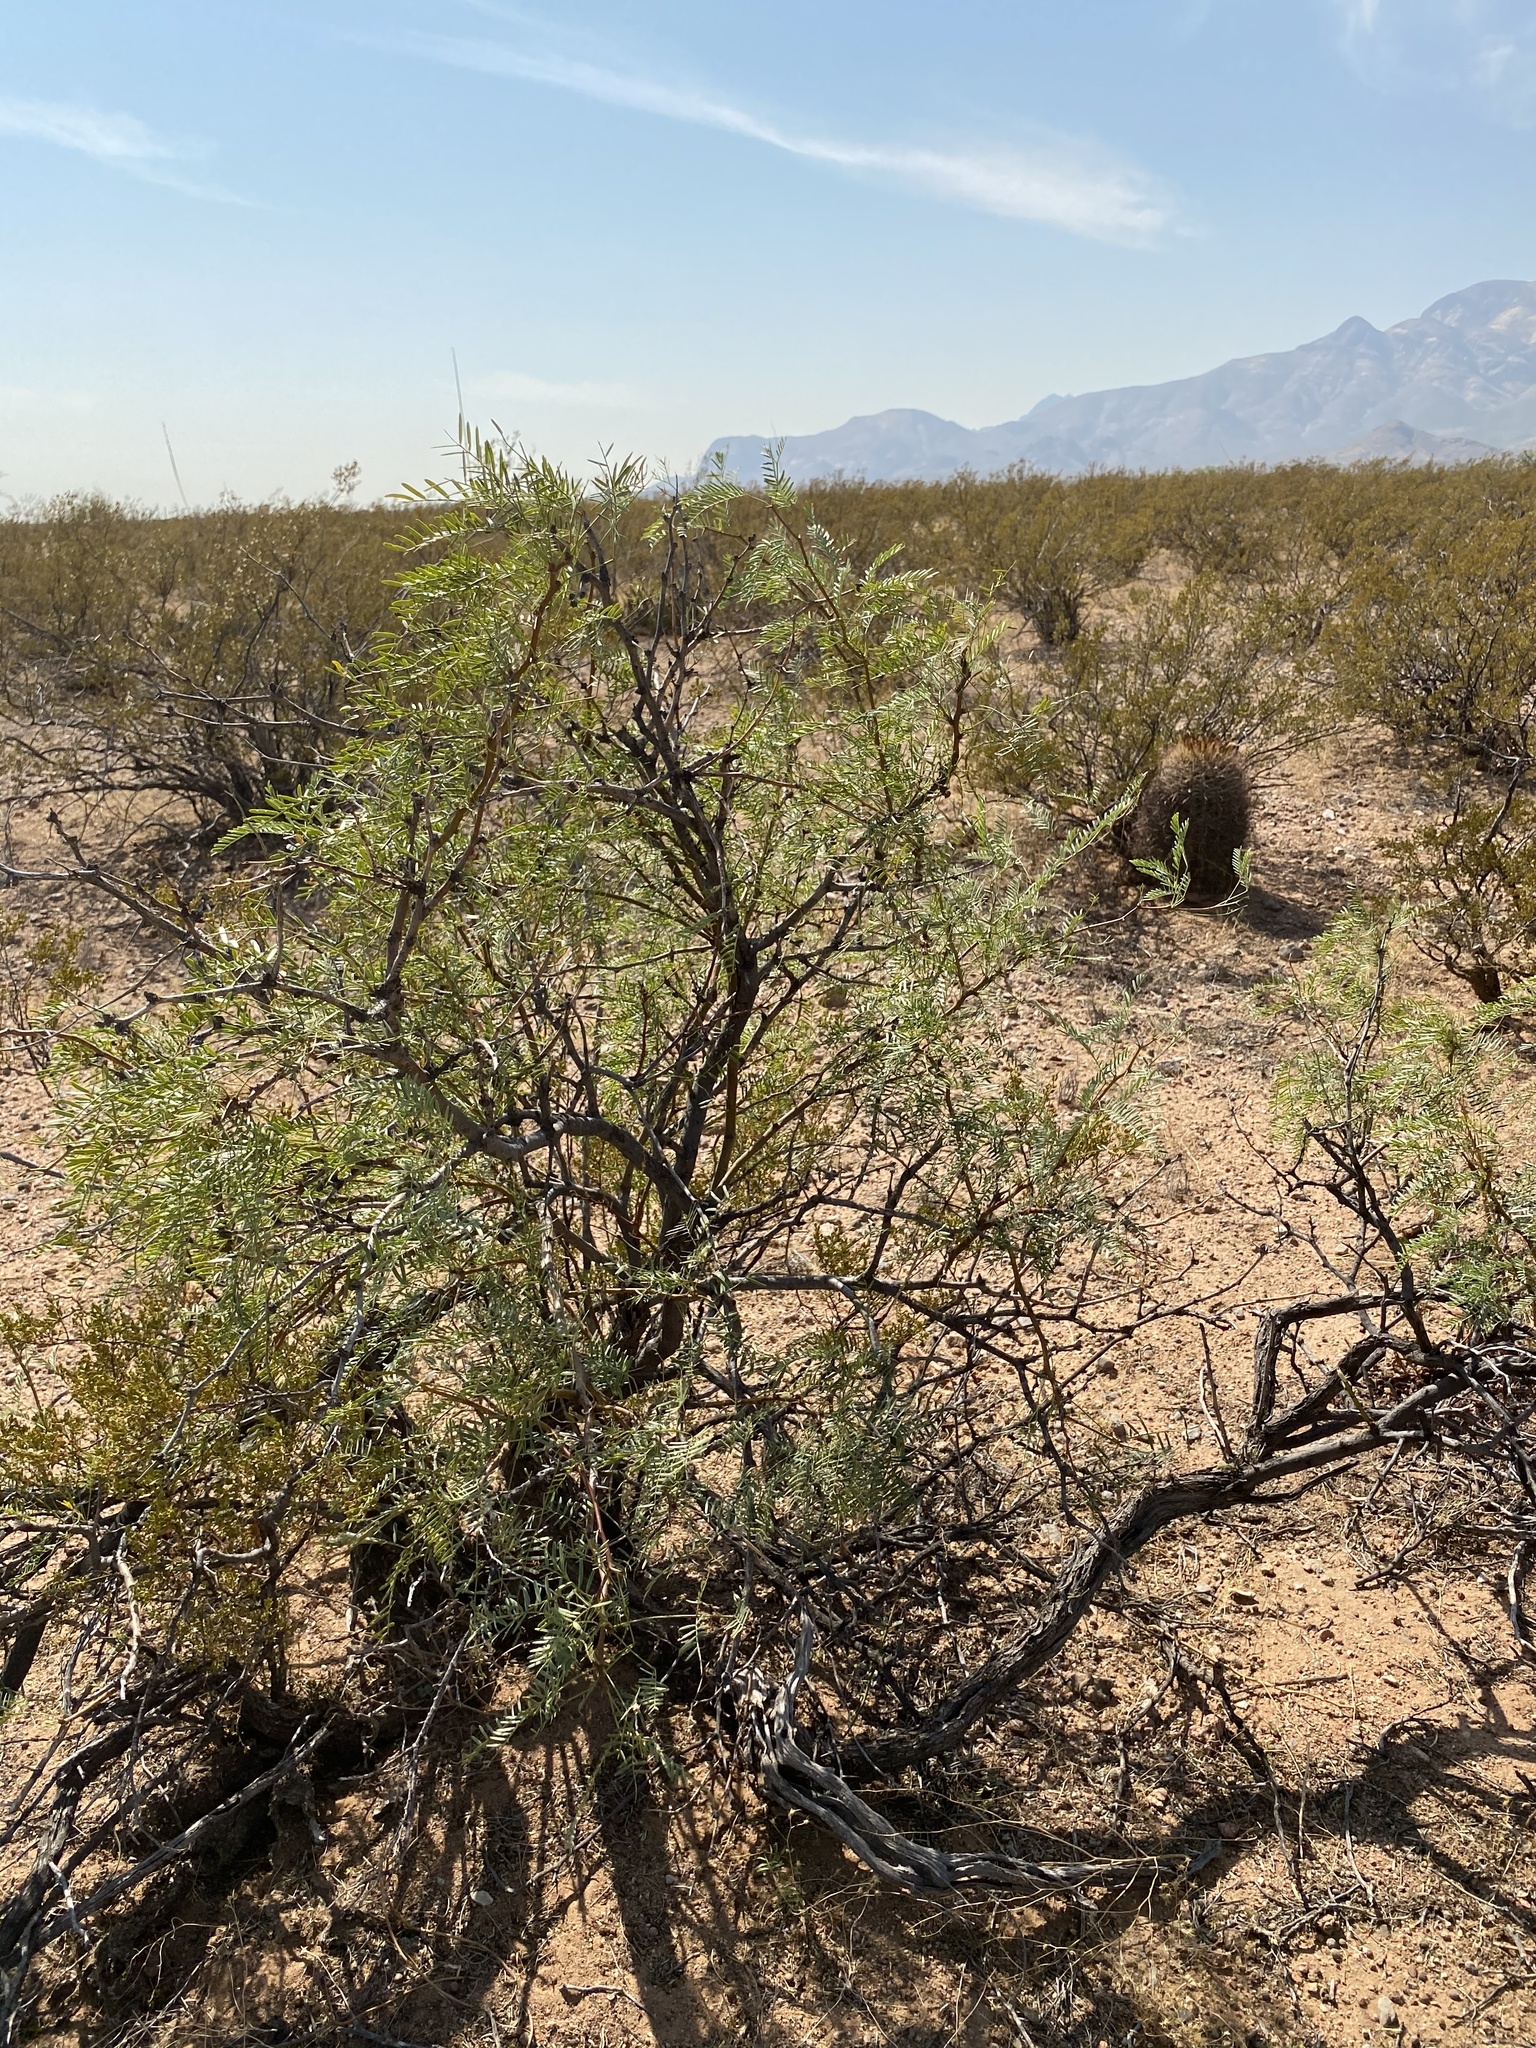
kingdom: Plantae
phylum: Tracheophyta
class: Magnoliopsida
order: Fabales
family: Fabaceae
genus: Prosopis
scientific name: Prosopis glandulosa
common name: Honey mesquite
